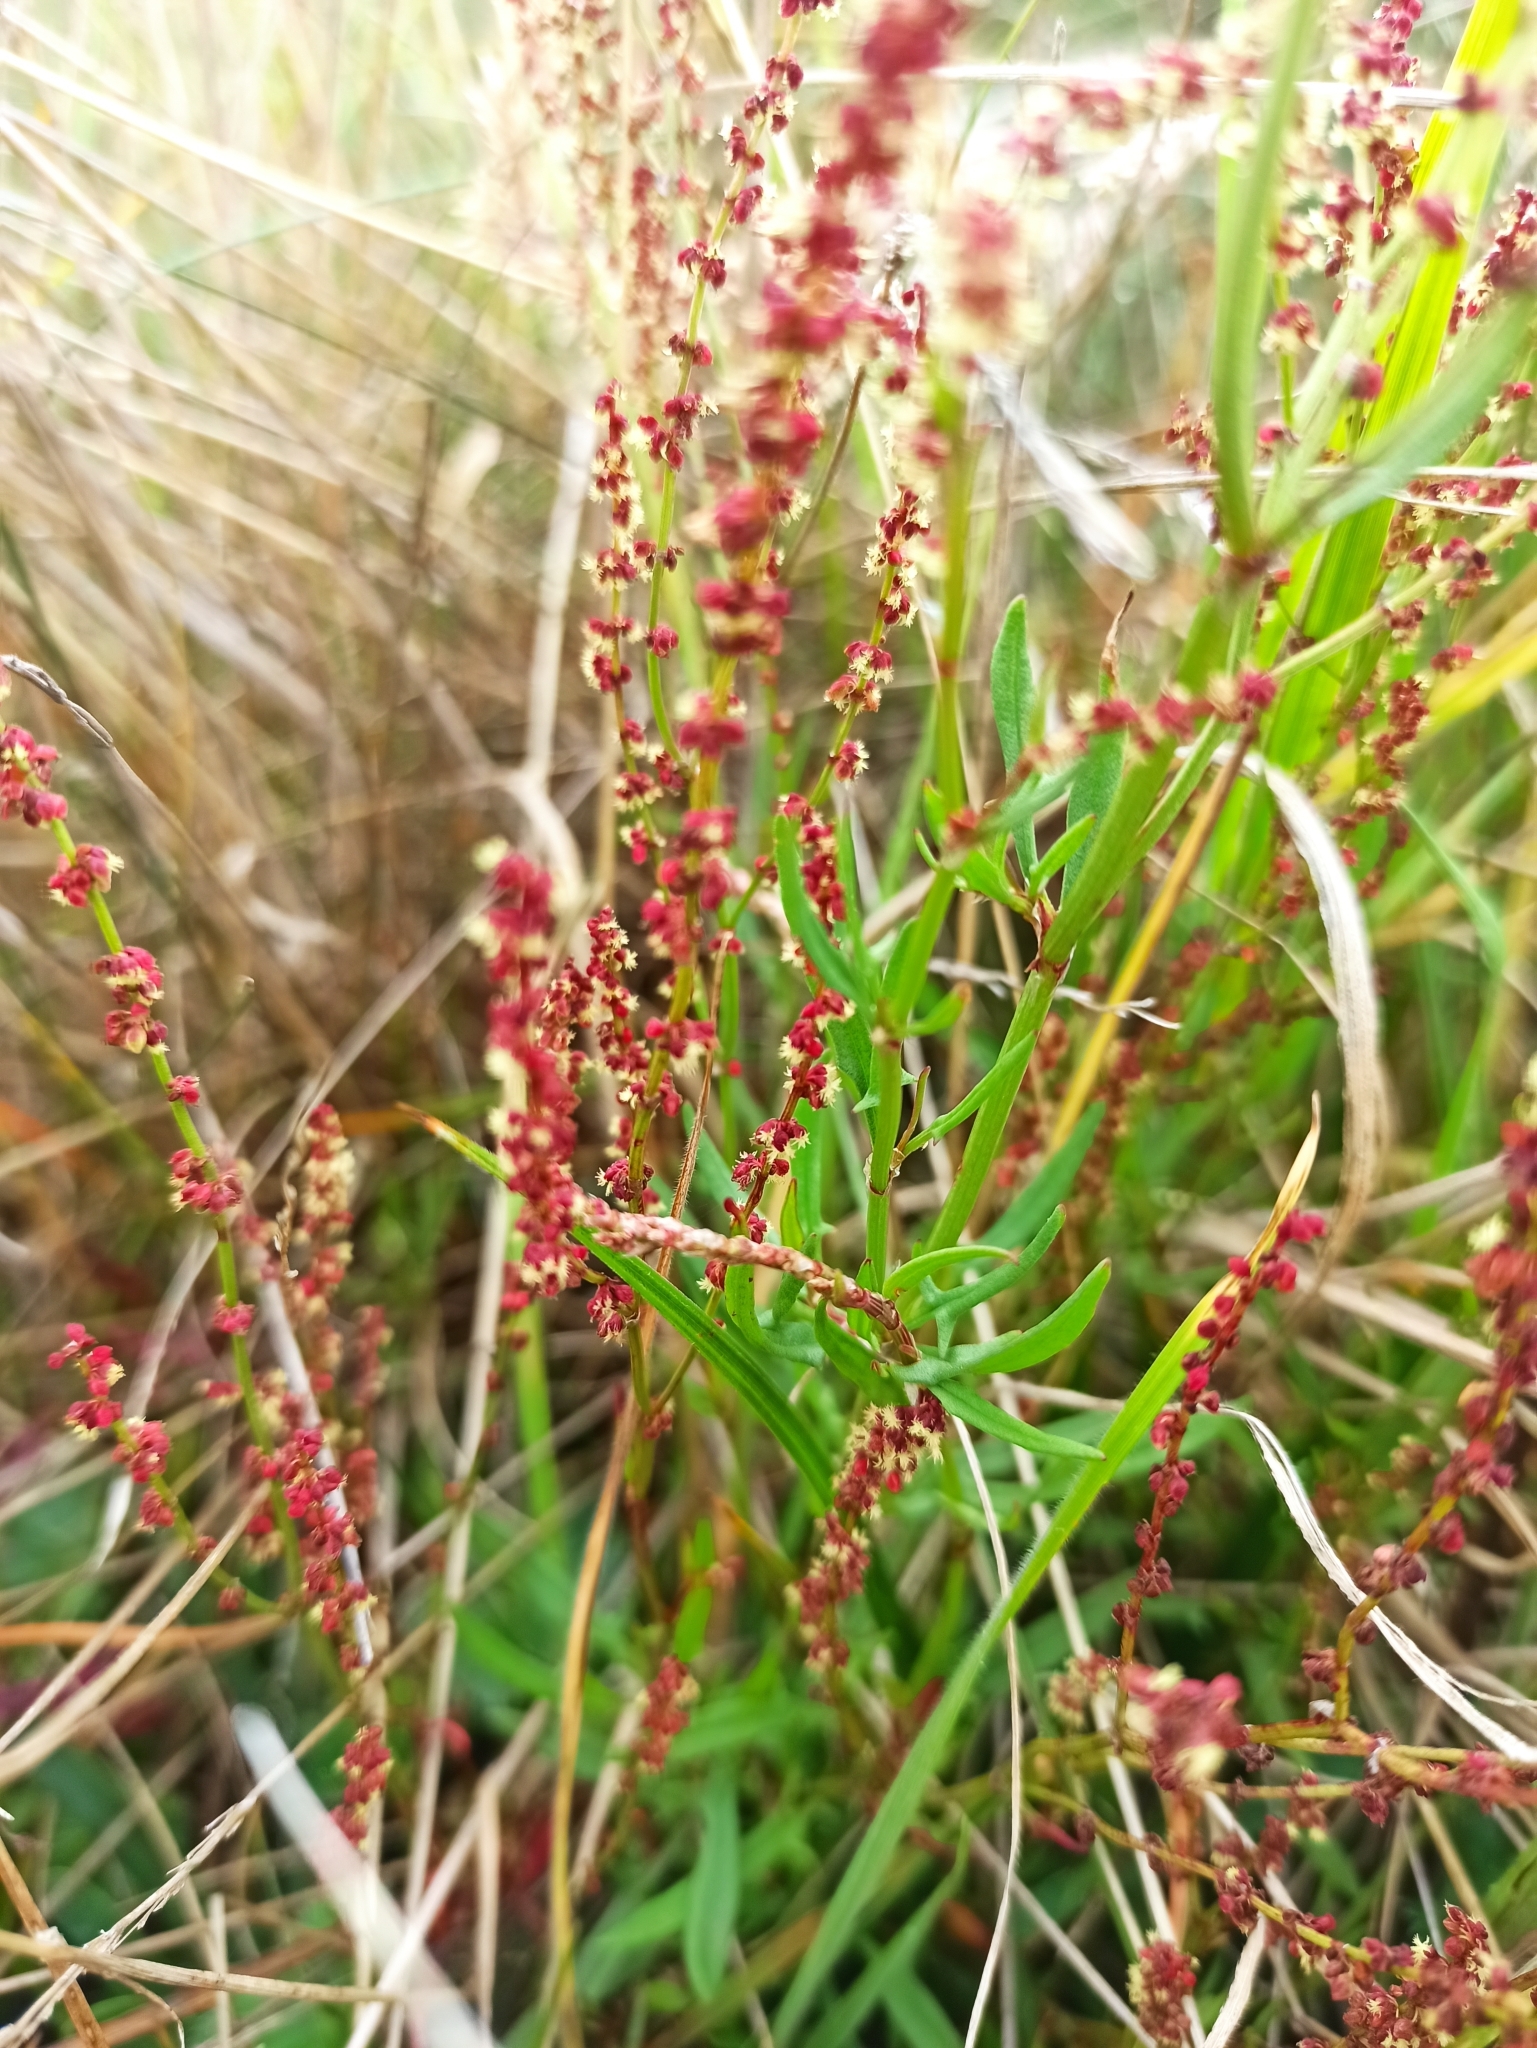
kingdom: Plantae
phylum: Tracheophyta
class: Magnoliopsida
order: Caryophyllales
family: Polygonaceae
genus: Rumex
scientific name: Rumex acetosella
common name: Common sheep sorrel
